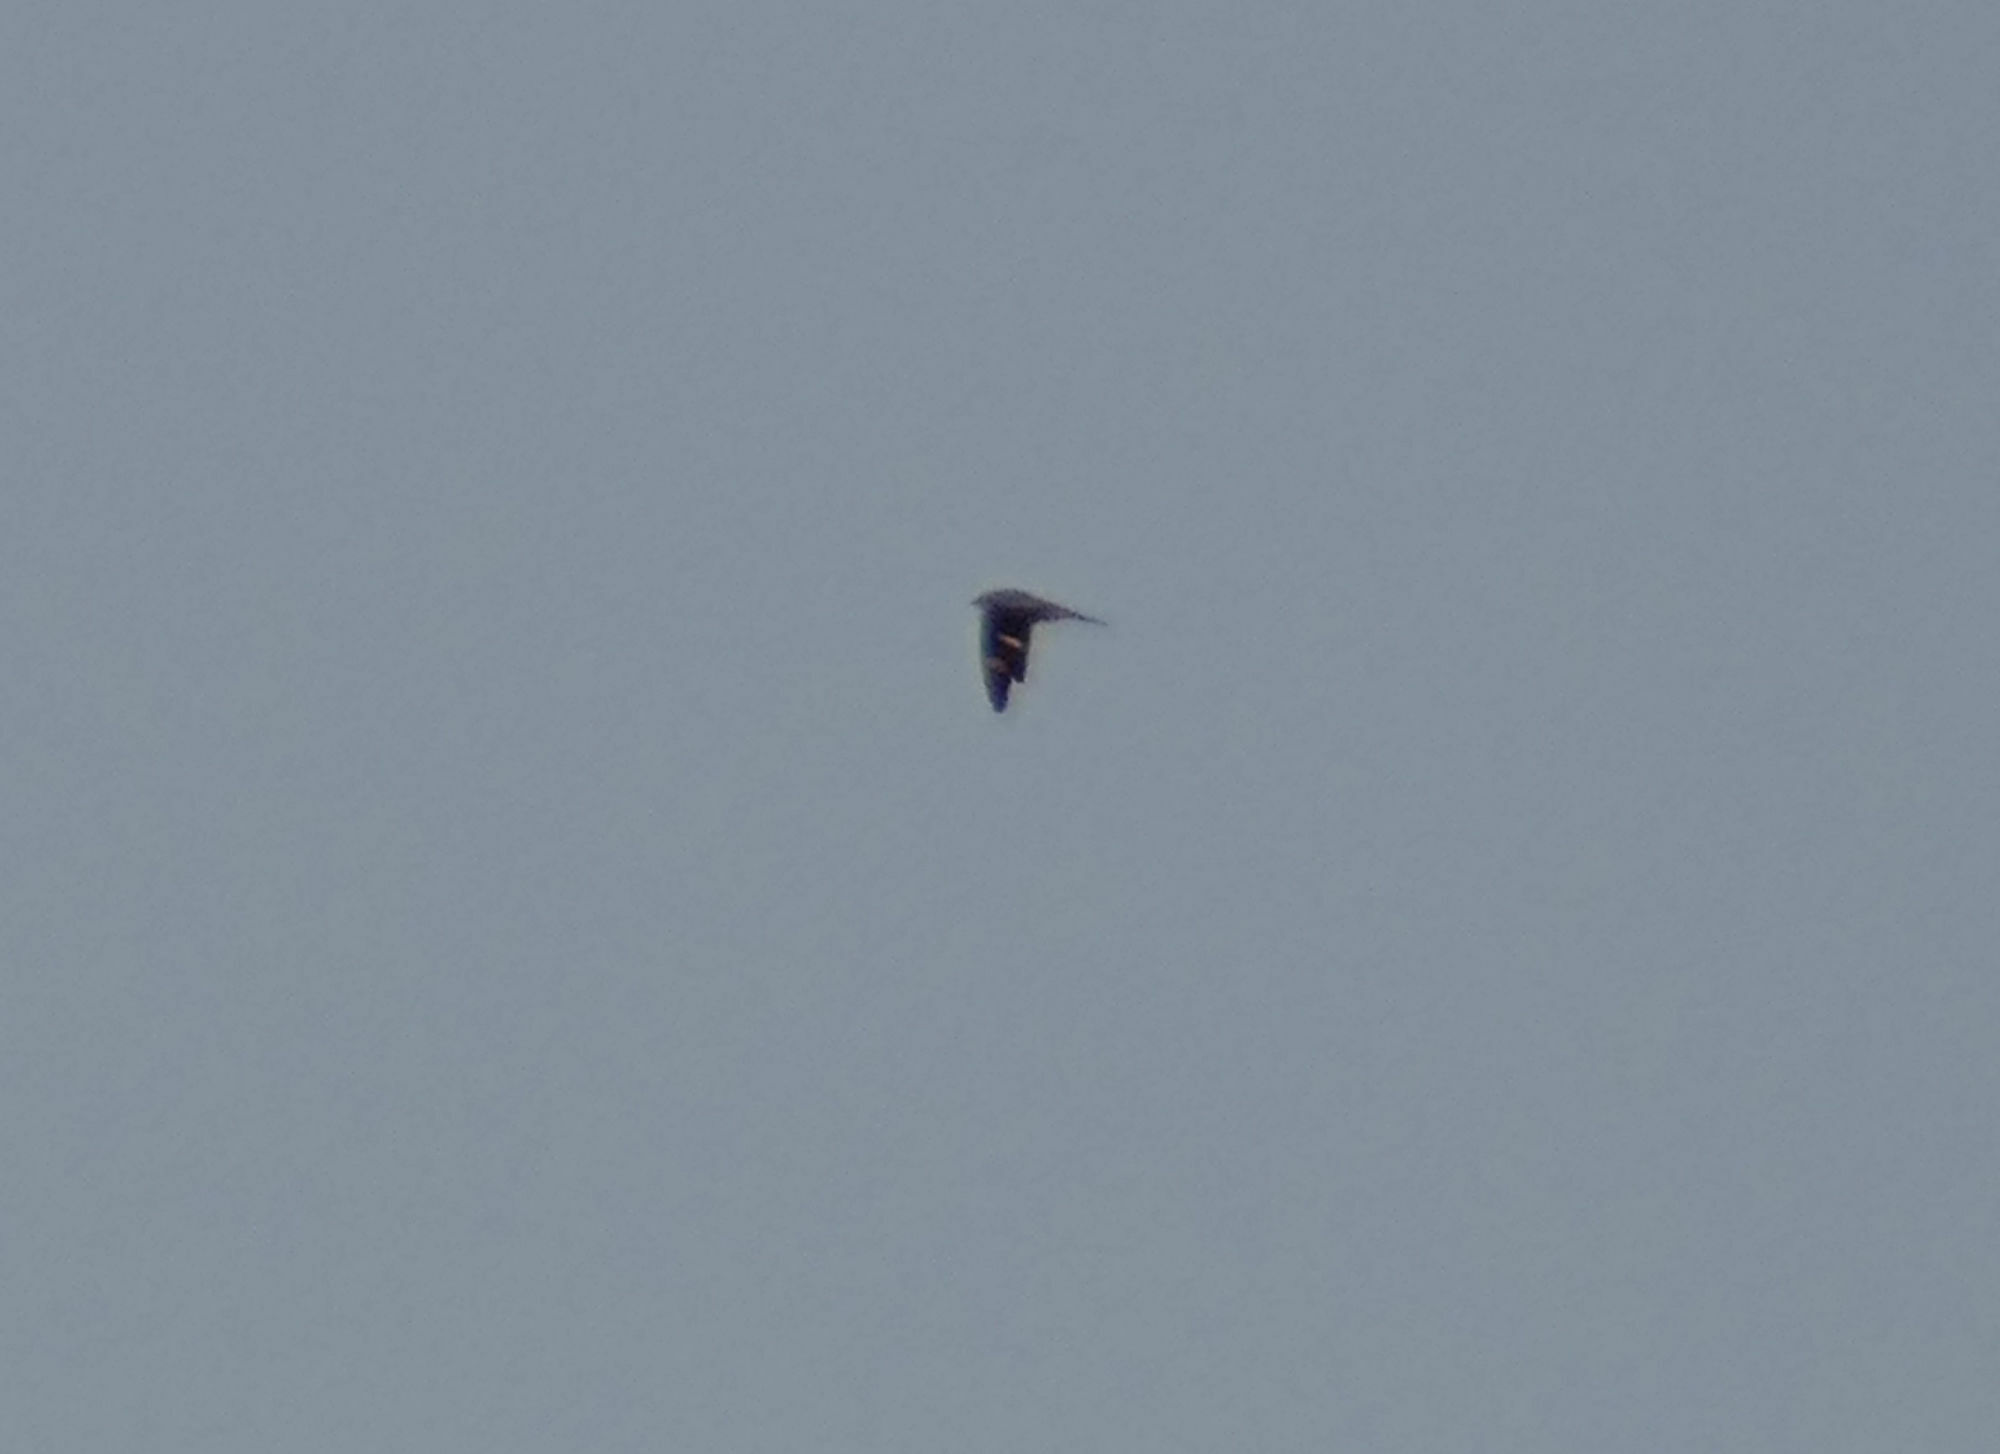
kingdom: Animalia
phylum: Chordata
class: Aves
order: Caprimulgiformes
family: Caprimulgidae
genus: Chordeiles
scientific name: Chordeiles minor
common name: Common nighthawk
